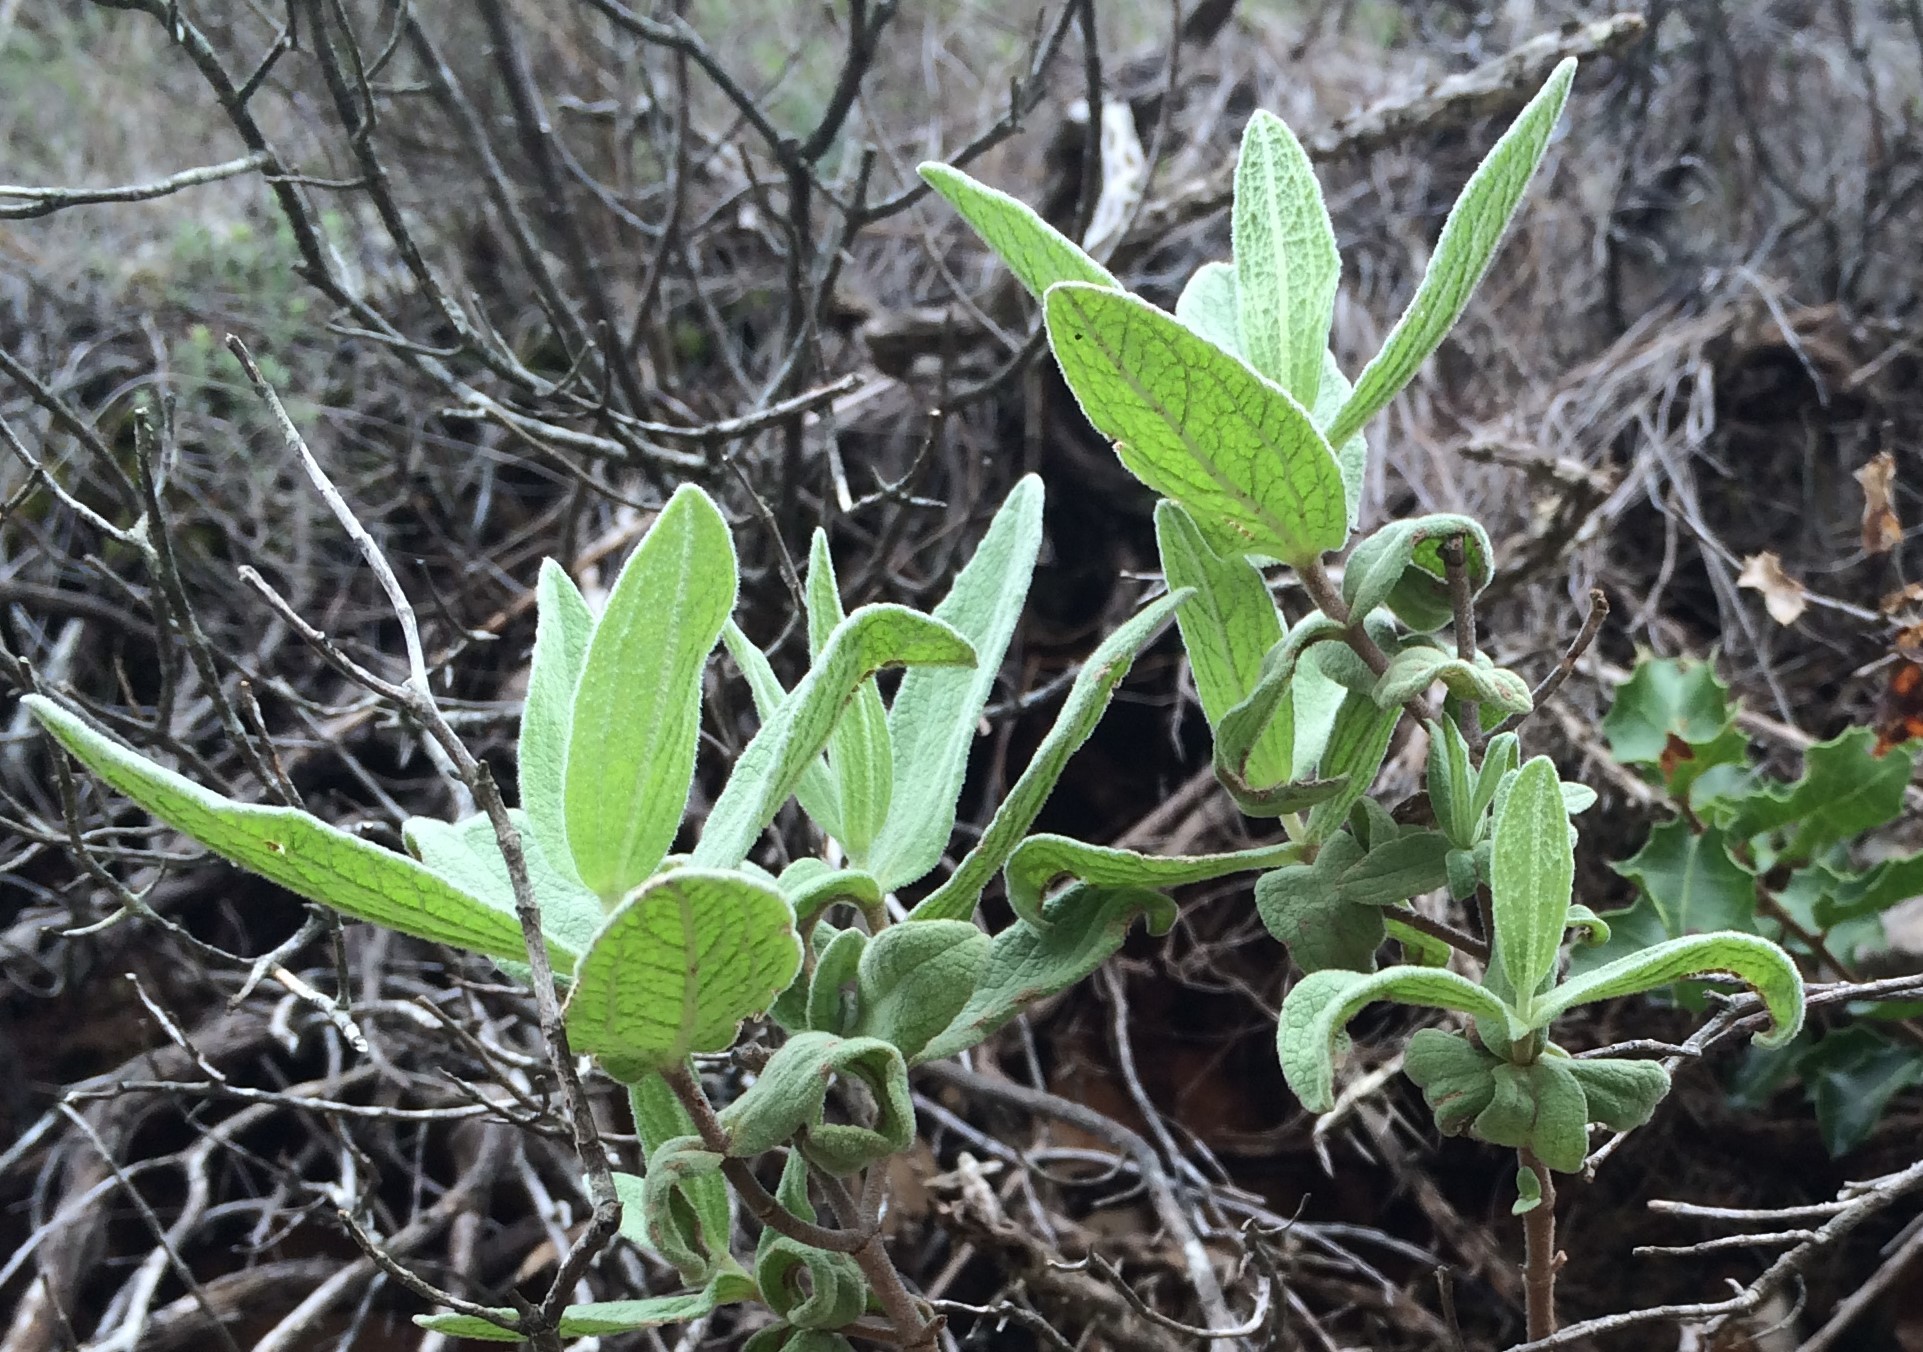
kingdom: Plantae
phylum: Tracheophyta
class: Magnoliopsida
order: Malvales
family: Cistaceae
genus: Cistus
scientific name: Cistus albidus
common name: White-leaf rock-rose
